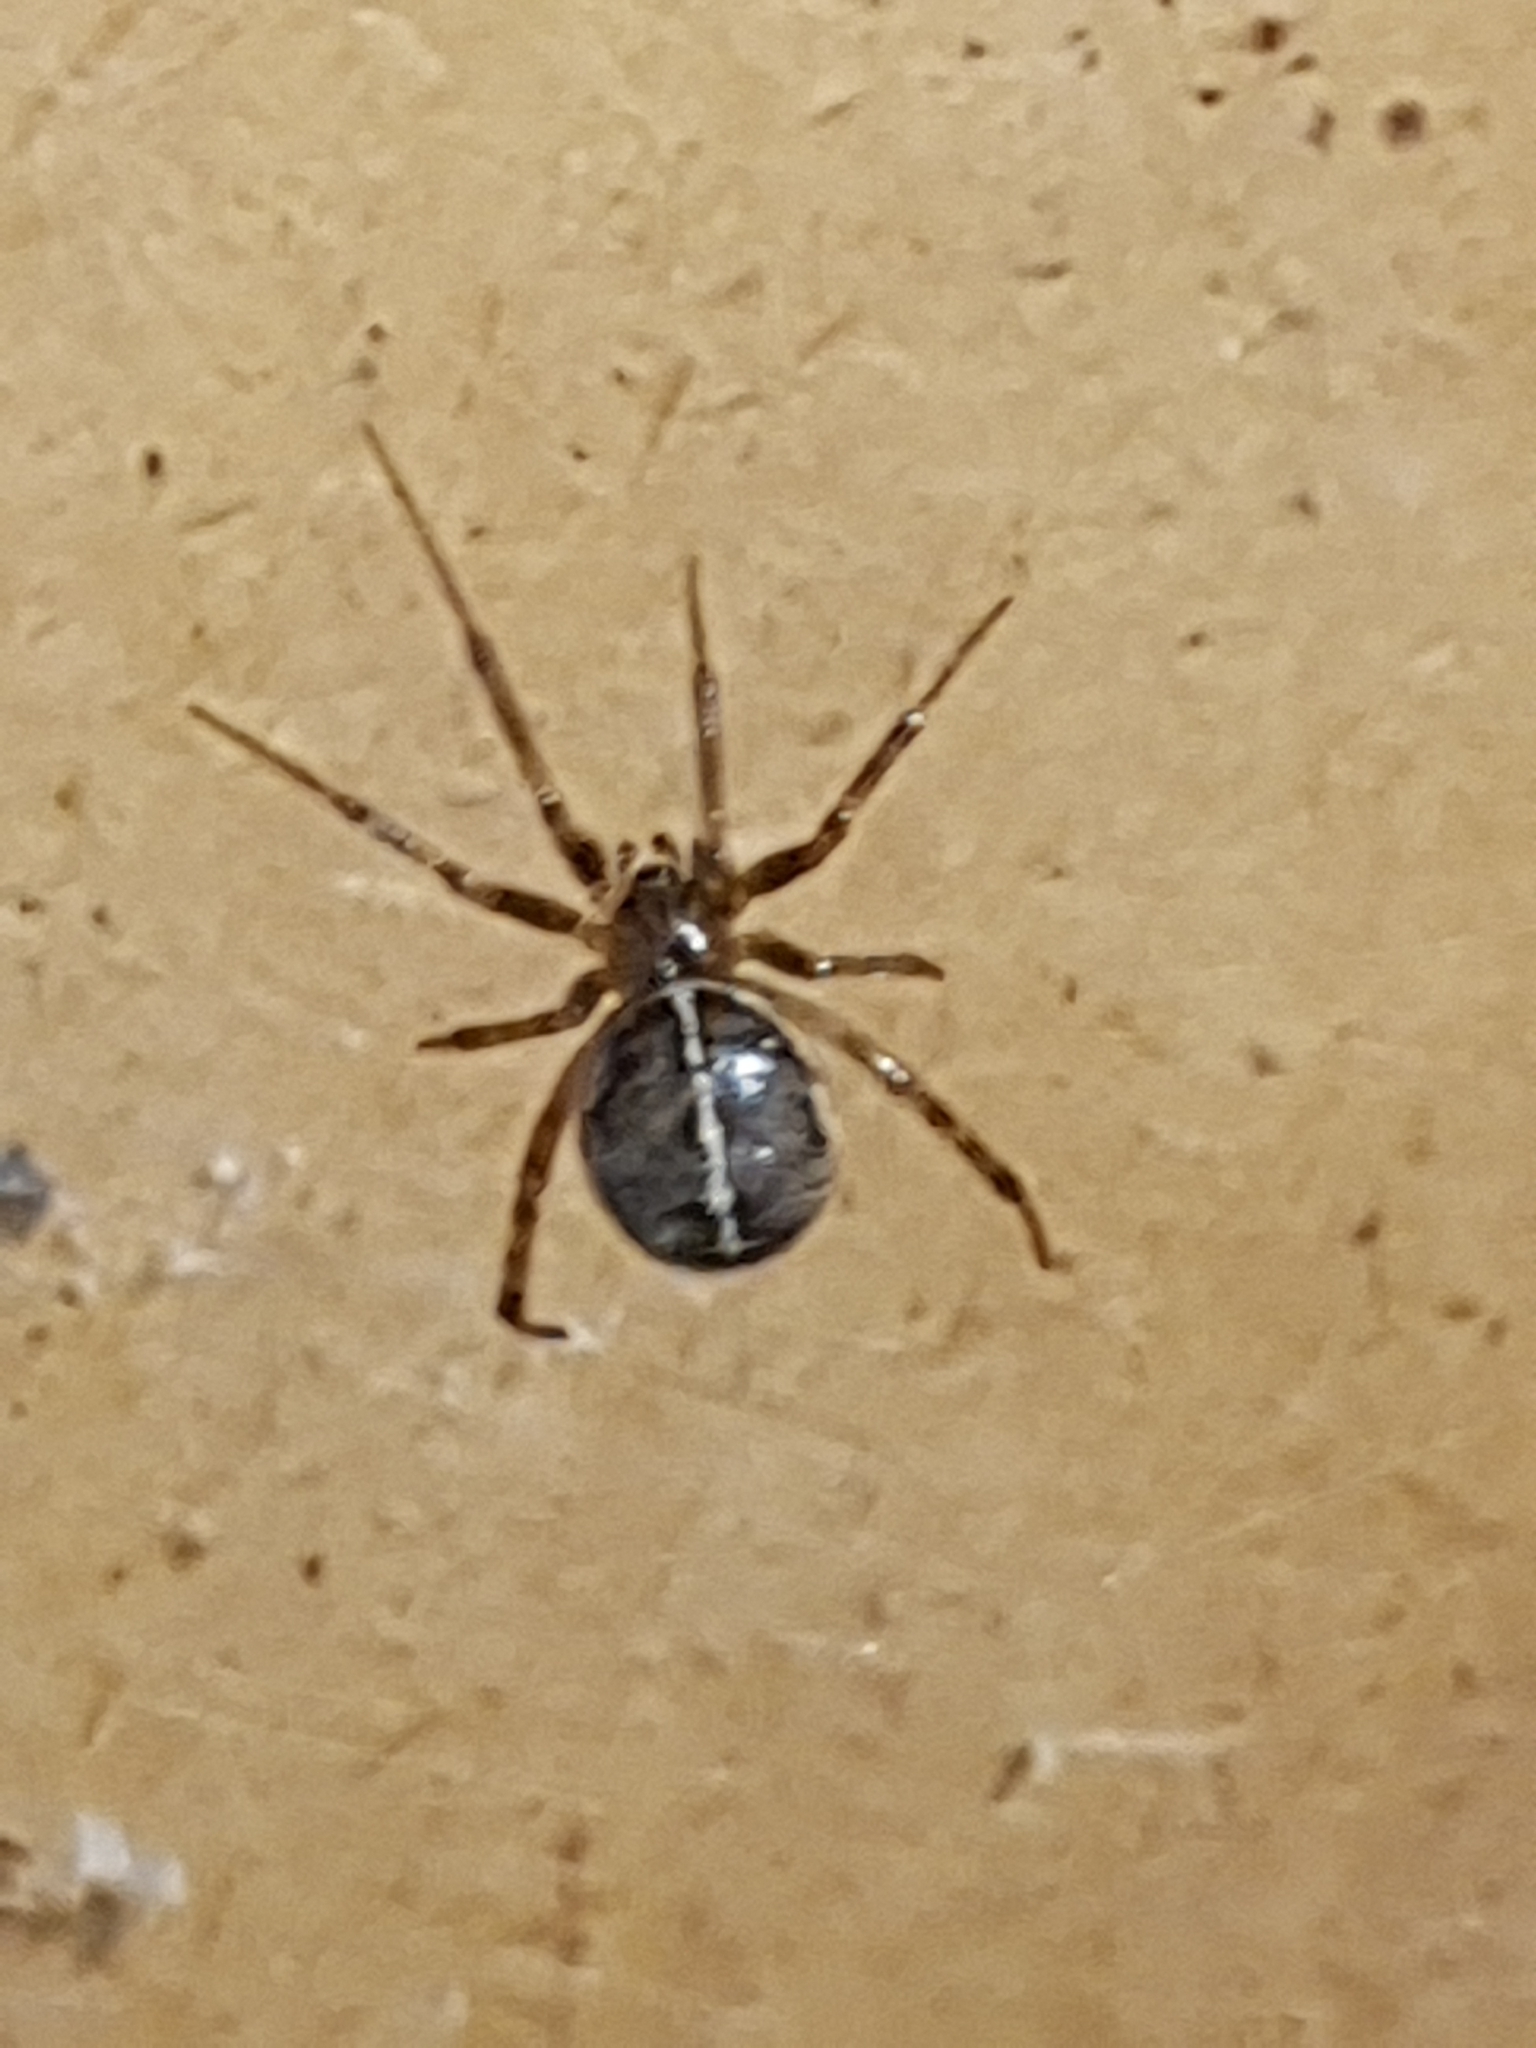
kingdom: Animalia
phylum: Arthropoda
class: Arachnida
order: Araneae
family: Theridiidae
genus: Steatoda
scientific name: Steatoda castanea
